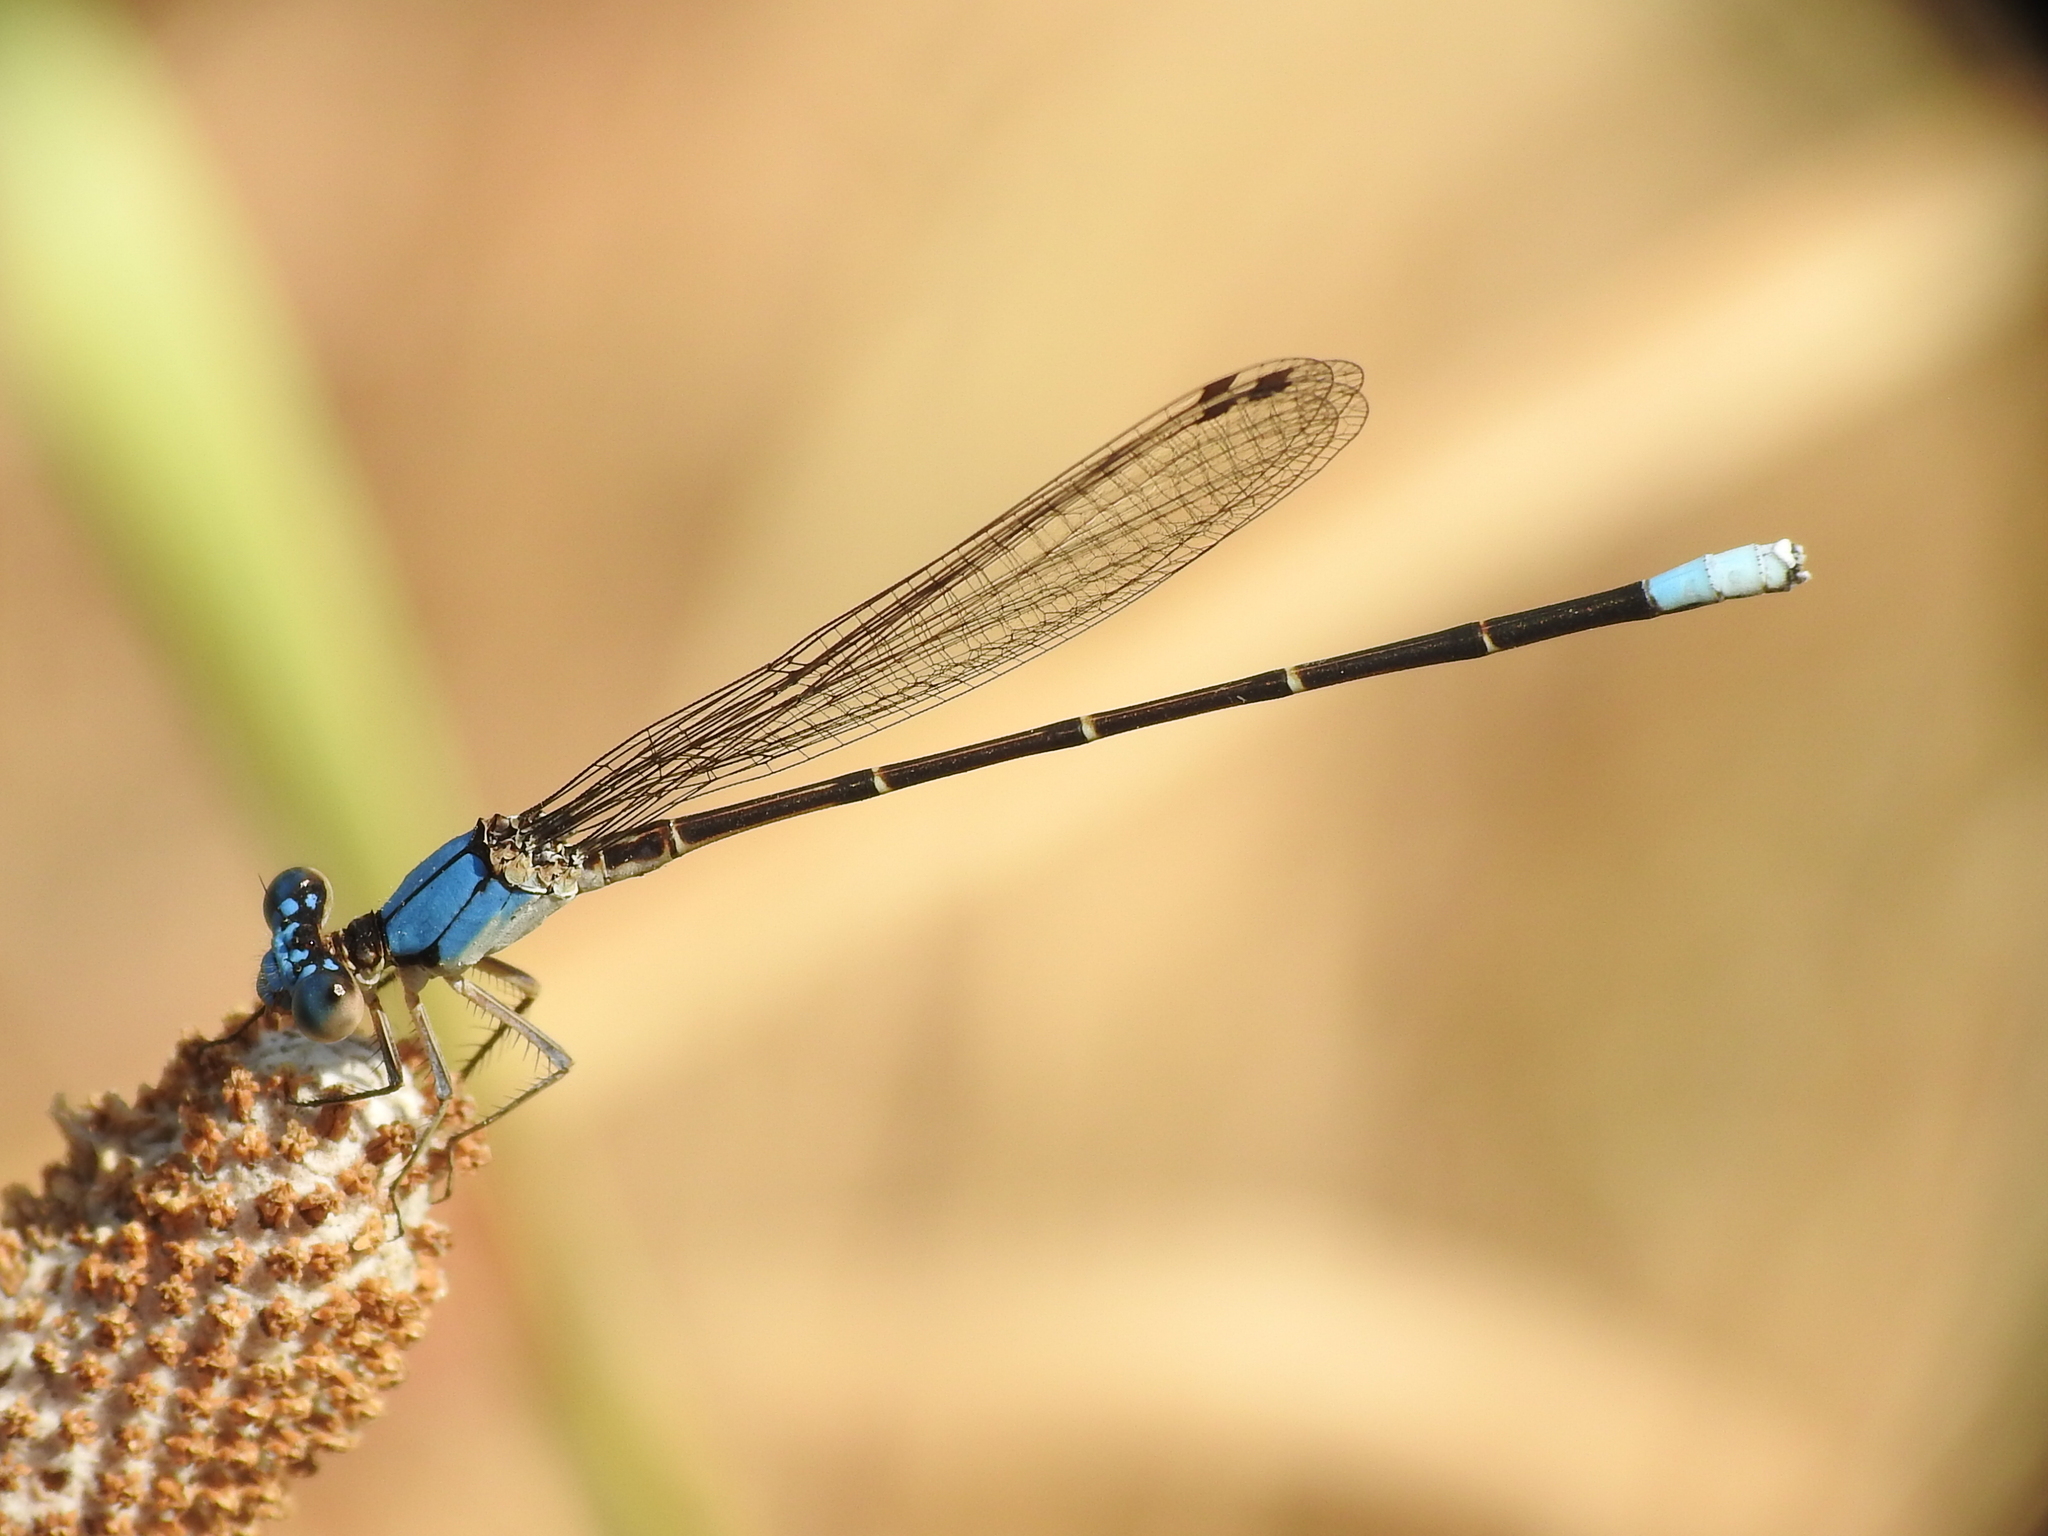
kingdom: Animalia
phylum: Arthropoda
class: Insecta
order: Odonata
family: Coenagrionidae
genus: Argia
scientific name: Argia apicalis
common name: Blue-fronted dancer
